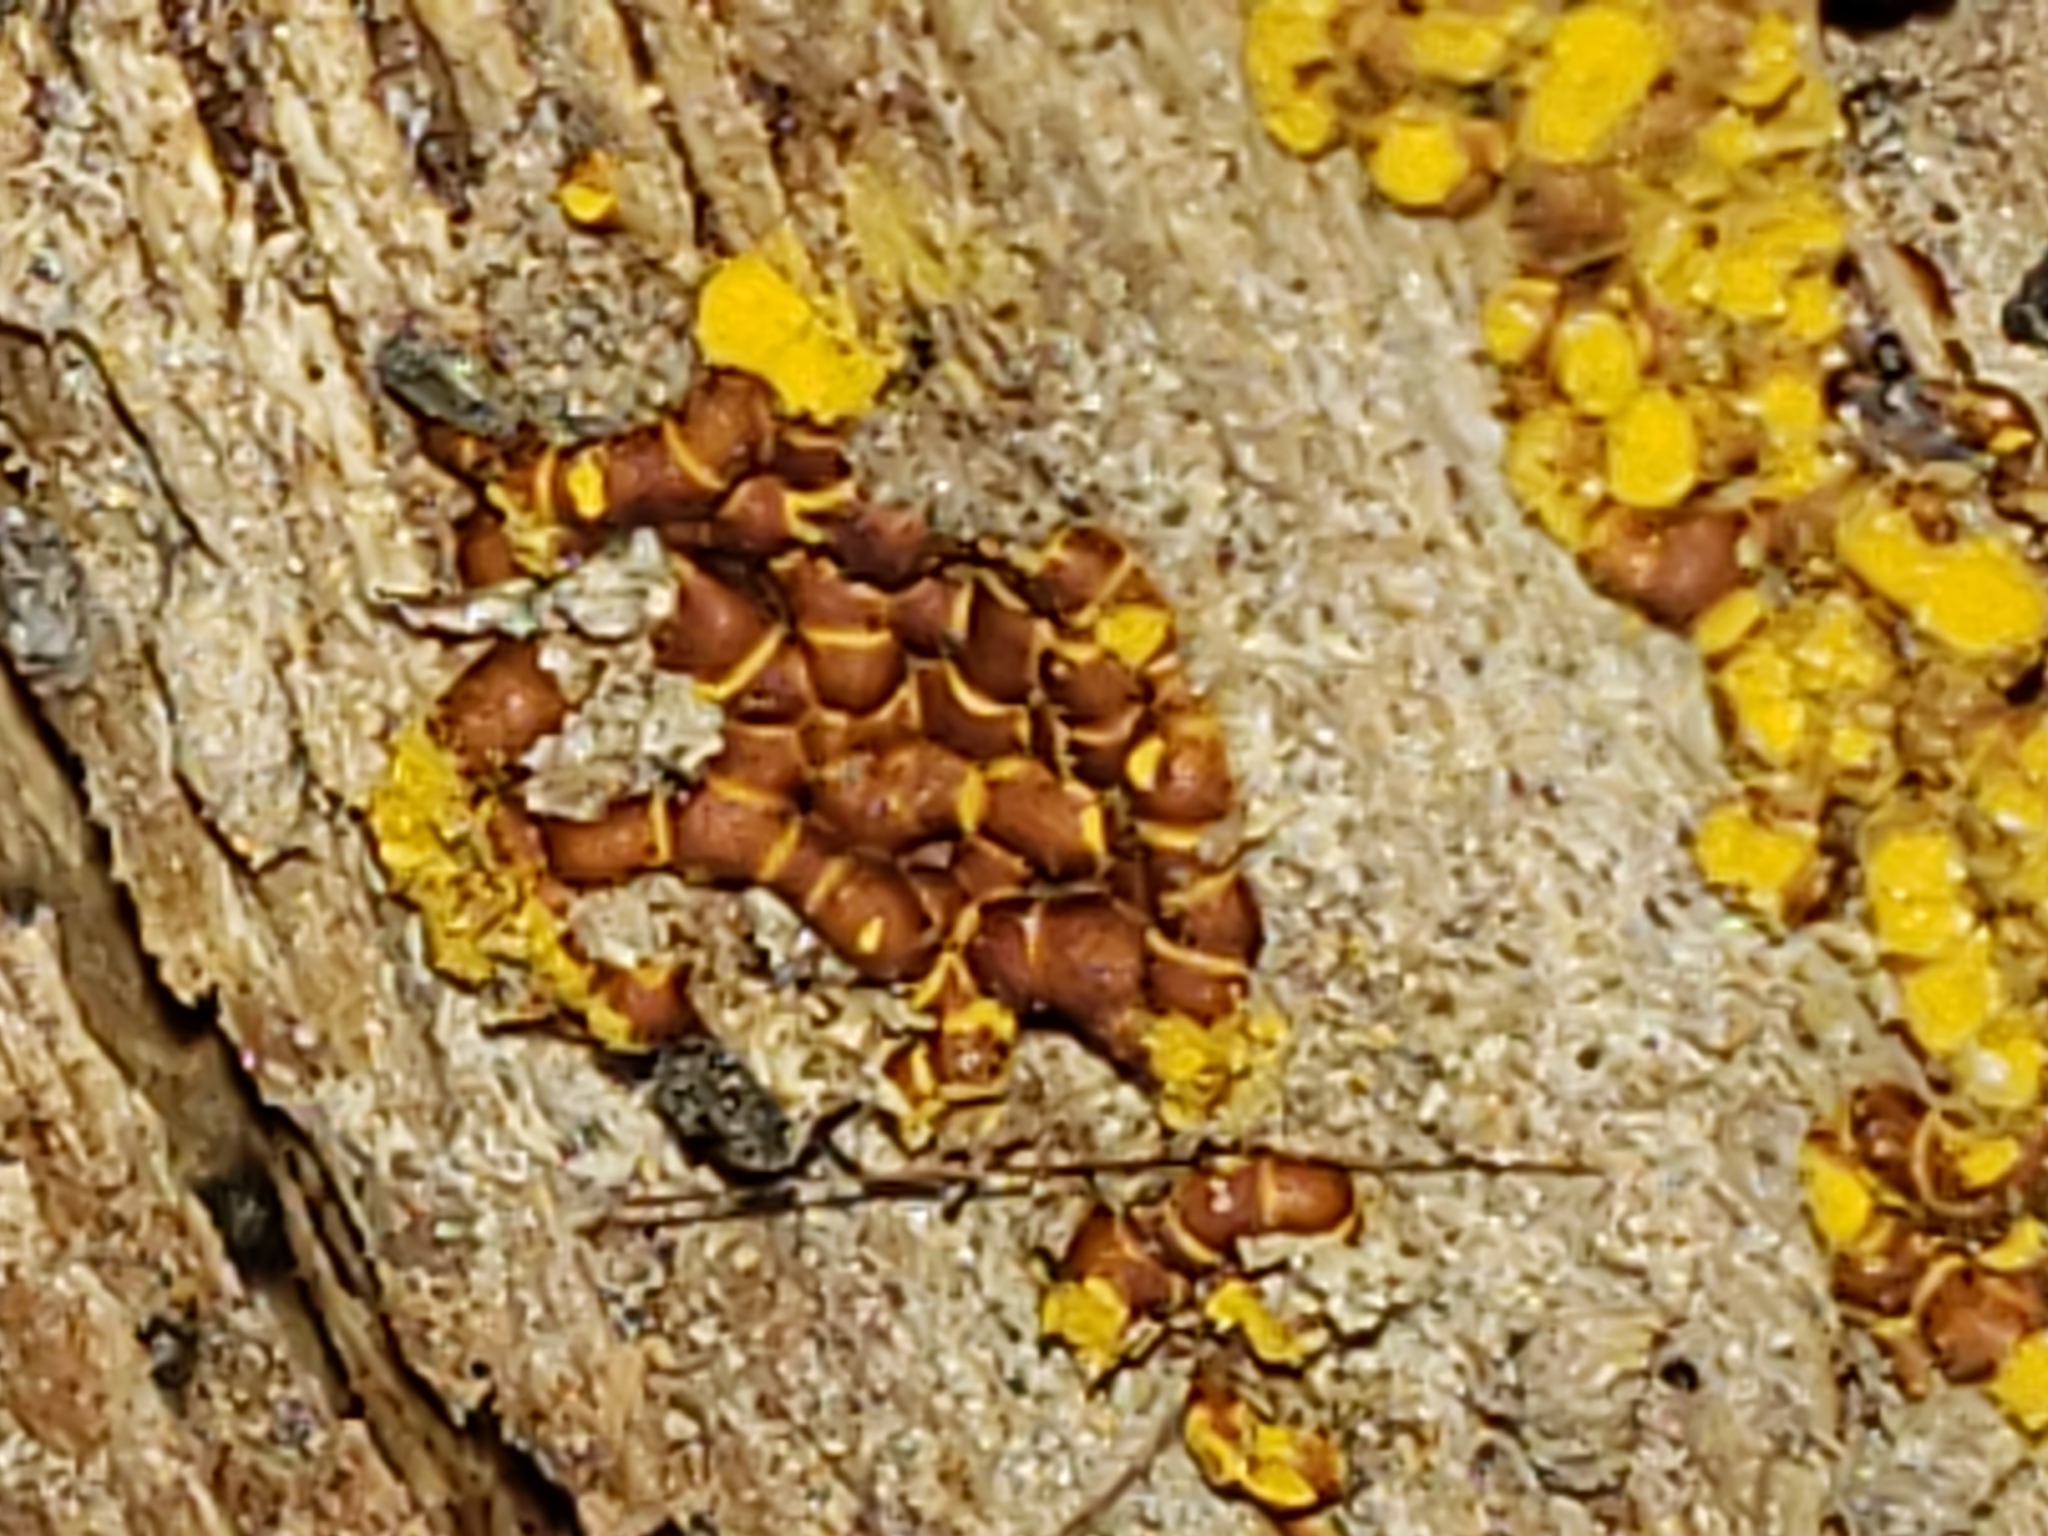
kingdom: Protozoa
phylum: Mycetozoa
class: Myxomycetes
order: Trichiales
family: Trichiaceae
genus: Perichaena
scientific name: Perichaena depressa
